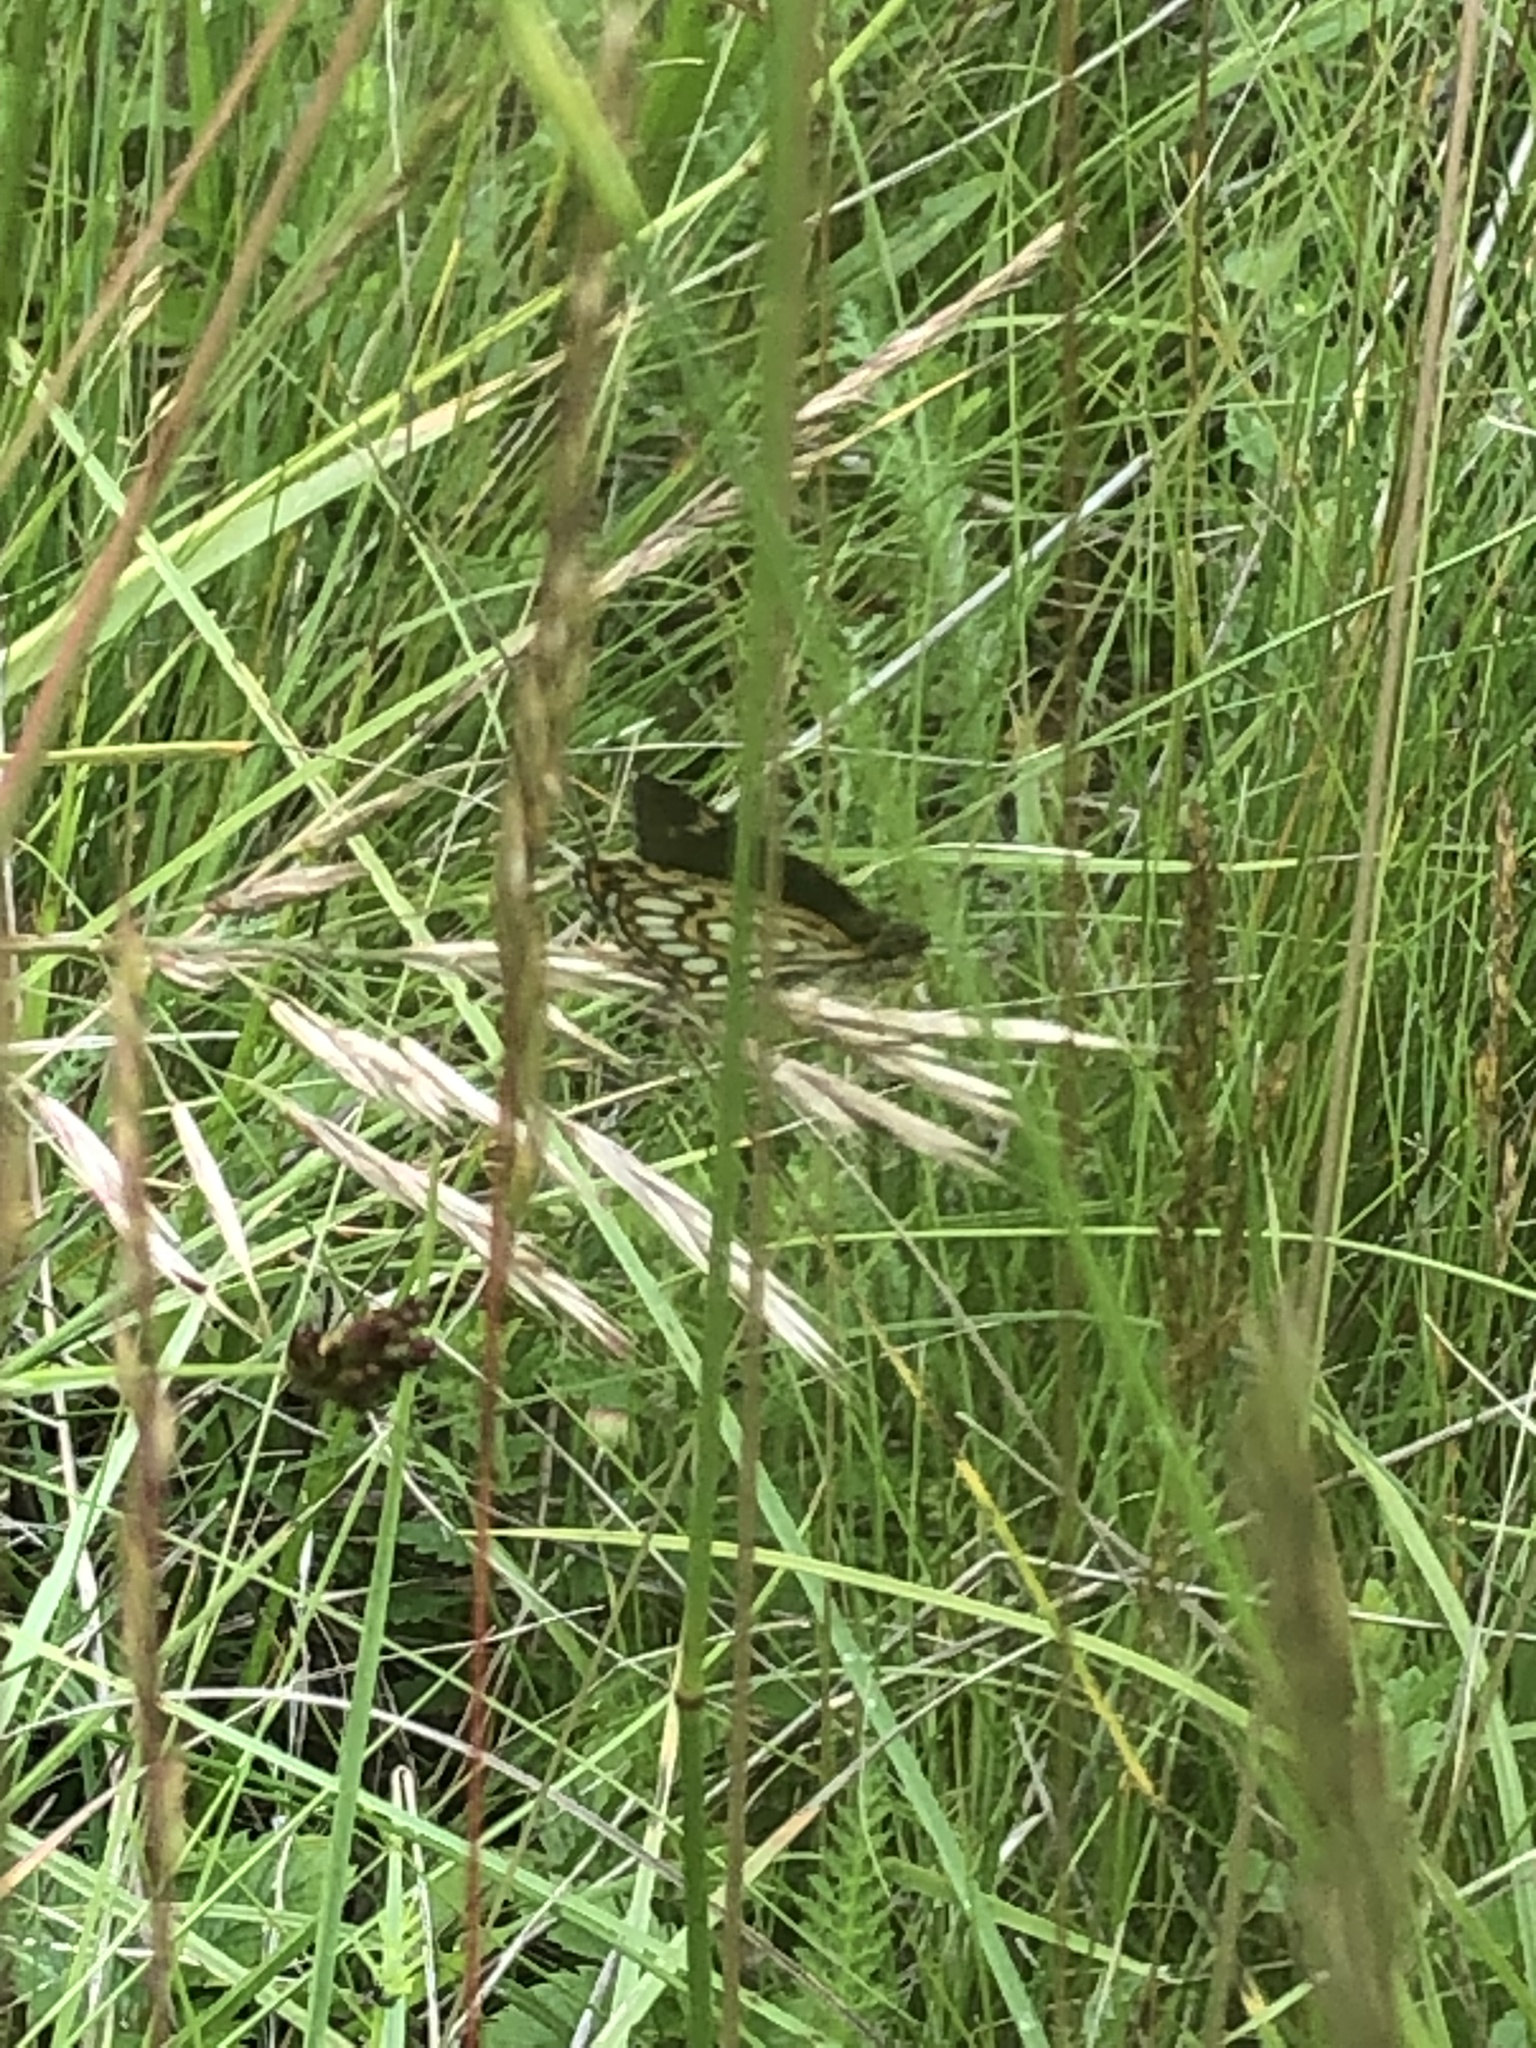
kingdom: Animalia
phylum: Arthropoda
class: Insecta
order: Lepidoptera
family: Hesperiidae
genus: Heteropterus
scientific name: Heteropterus morpheus
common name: Large chequered skipper
